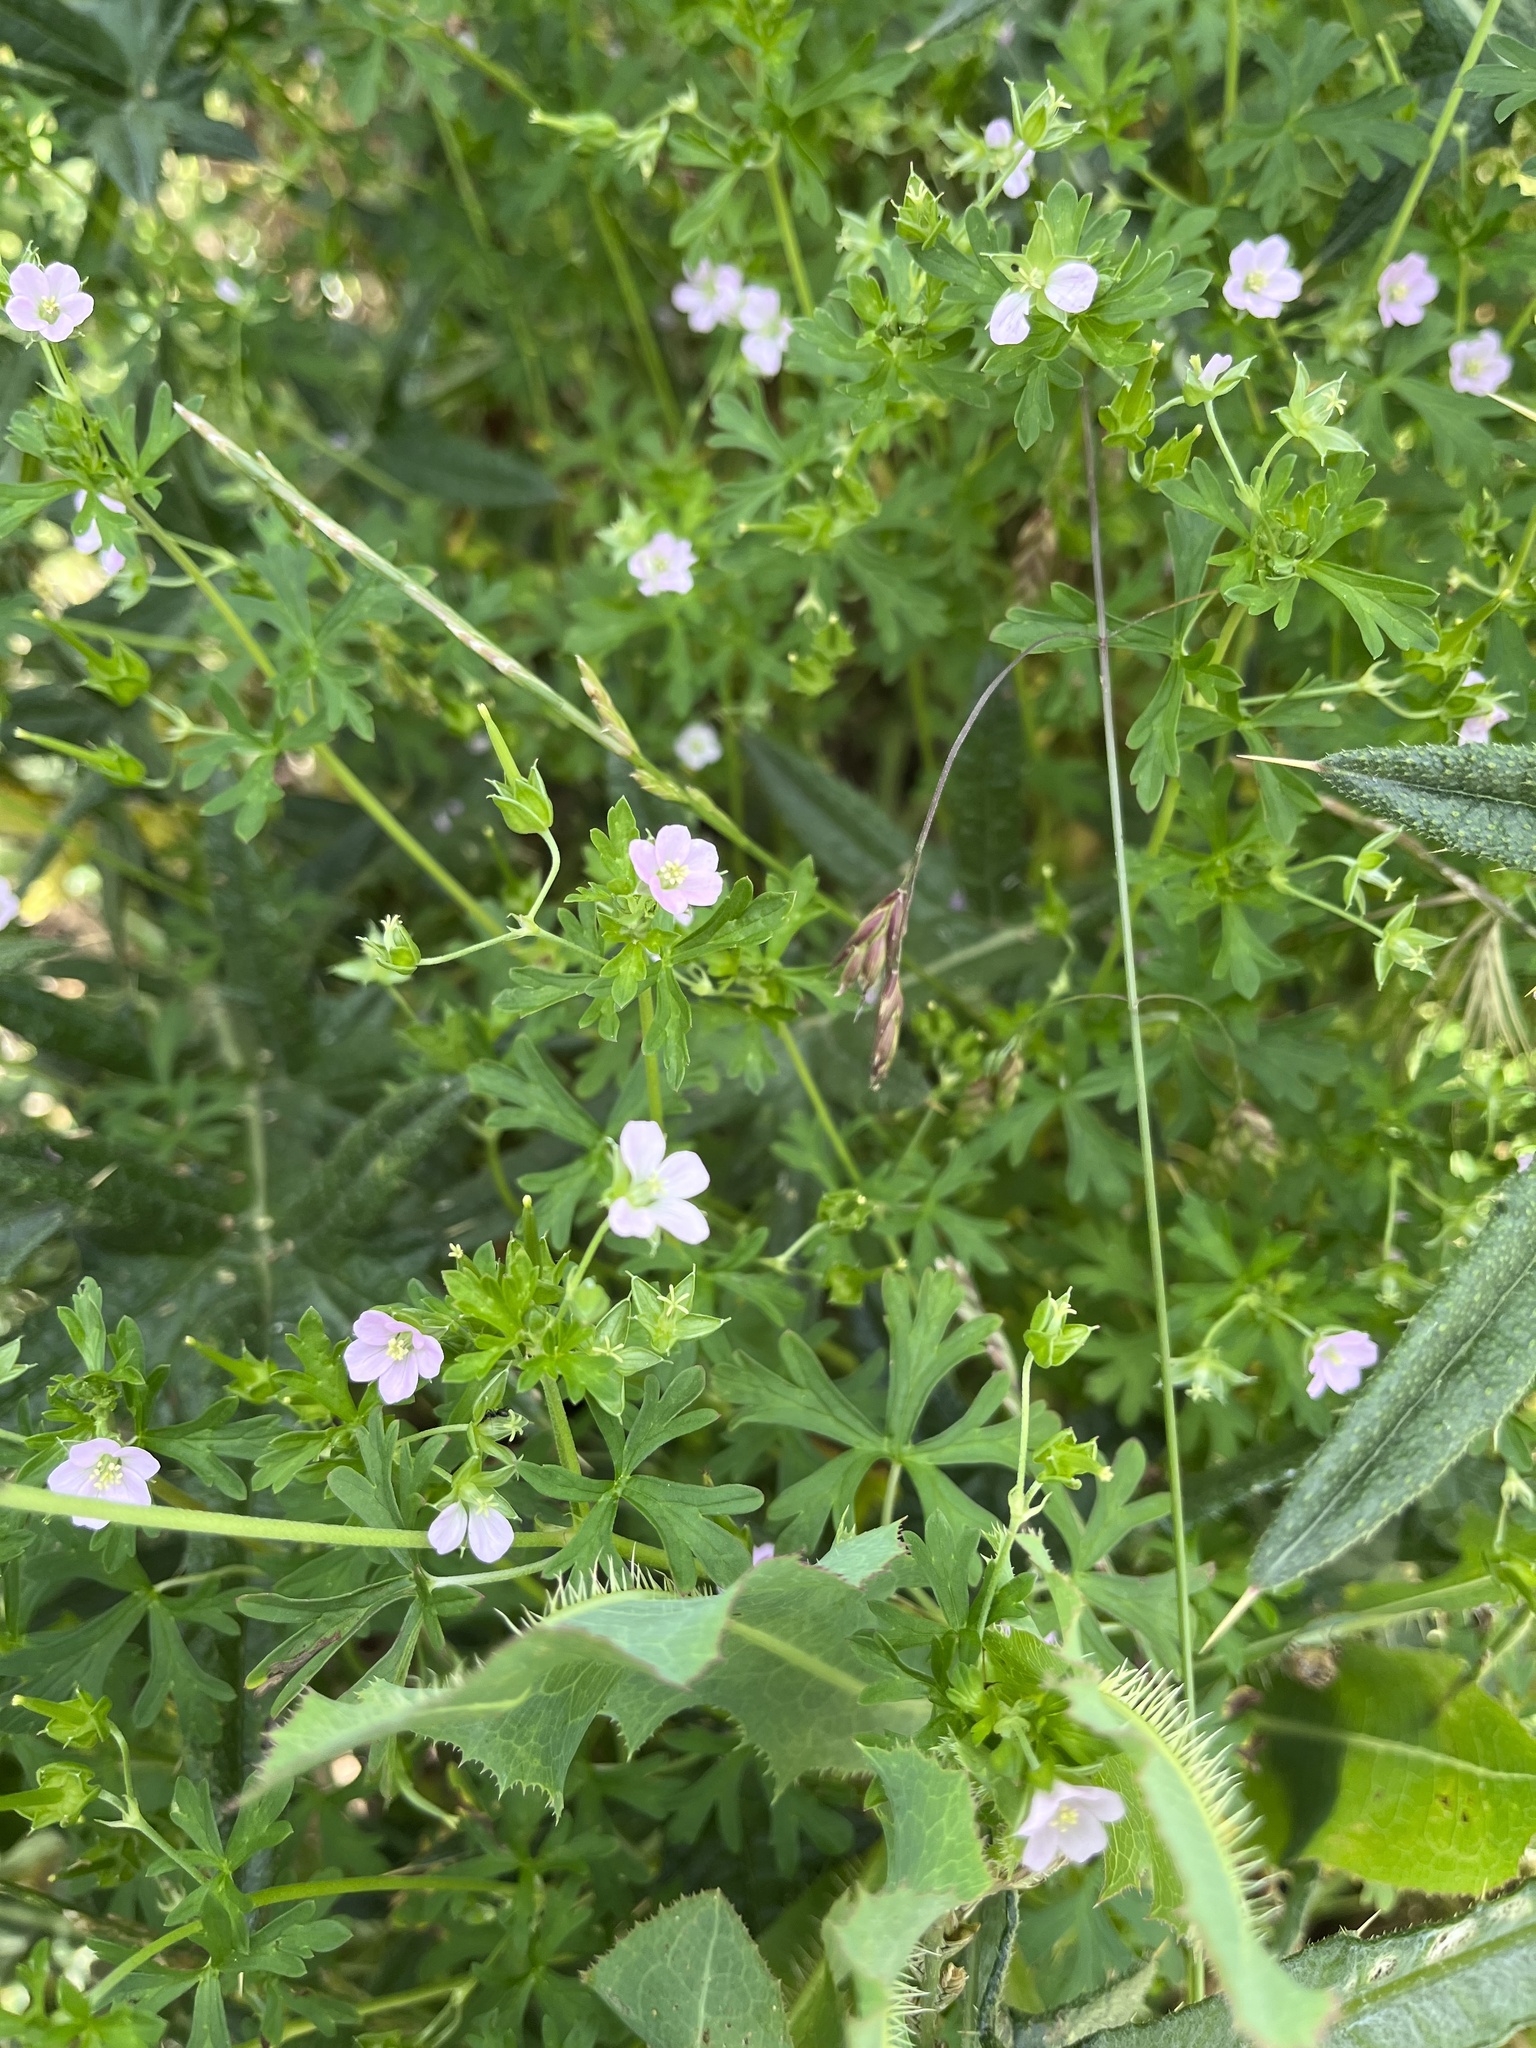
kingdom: Plantae
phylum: Tracheophyta
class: Magnoliopsida
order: Geraniales
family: Geraniaceae
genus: Geranium
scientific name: Geranium
